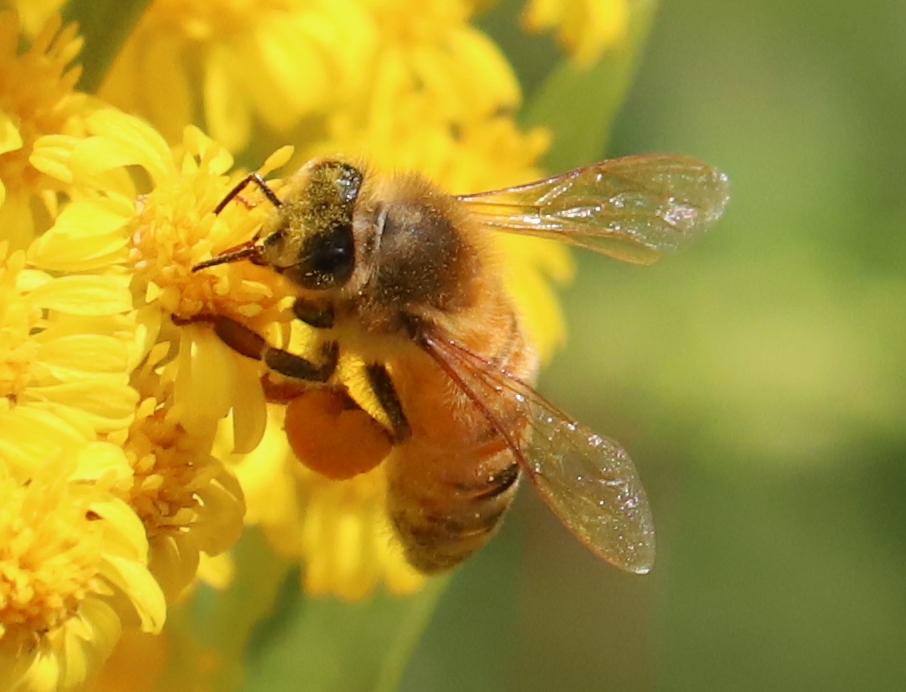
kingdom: Animalia
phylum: Arthropoda
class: Insecta
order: Hymenoptera
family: Apidae
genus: Apis
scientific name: Apis mellifera
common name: Honey bee
